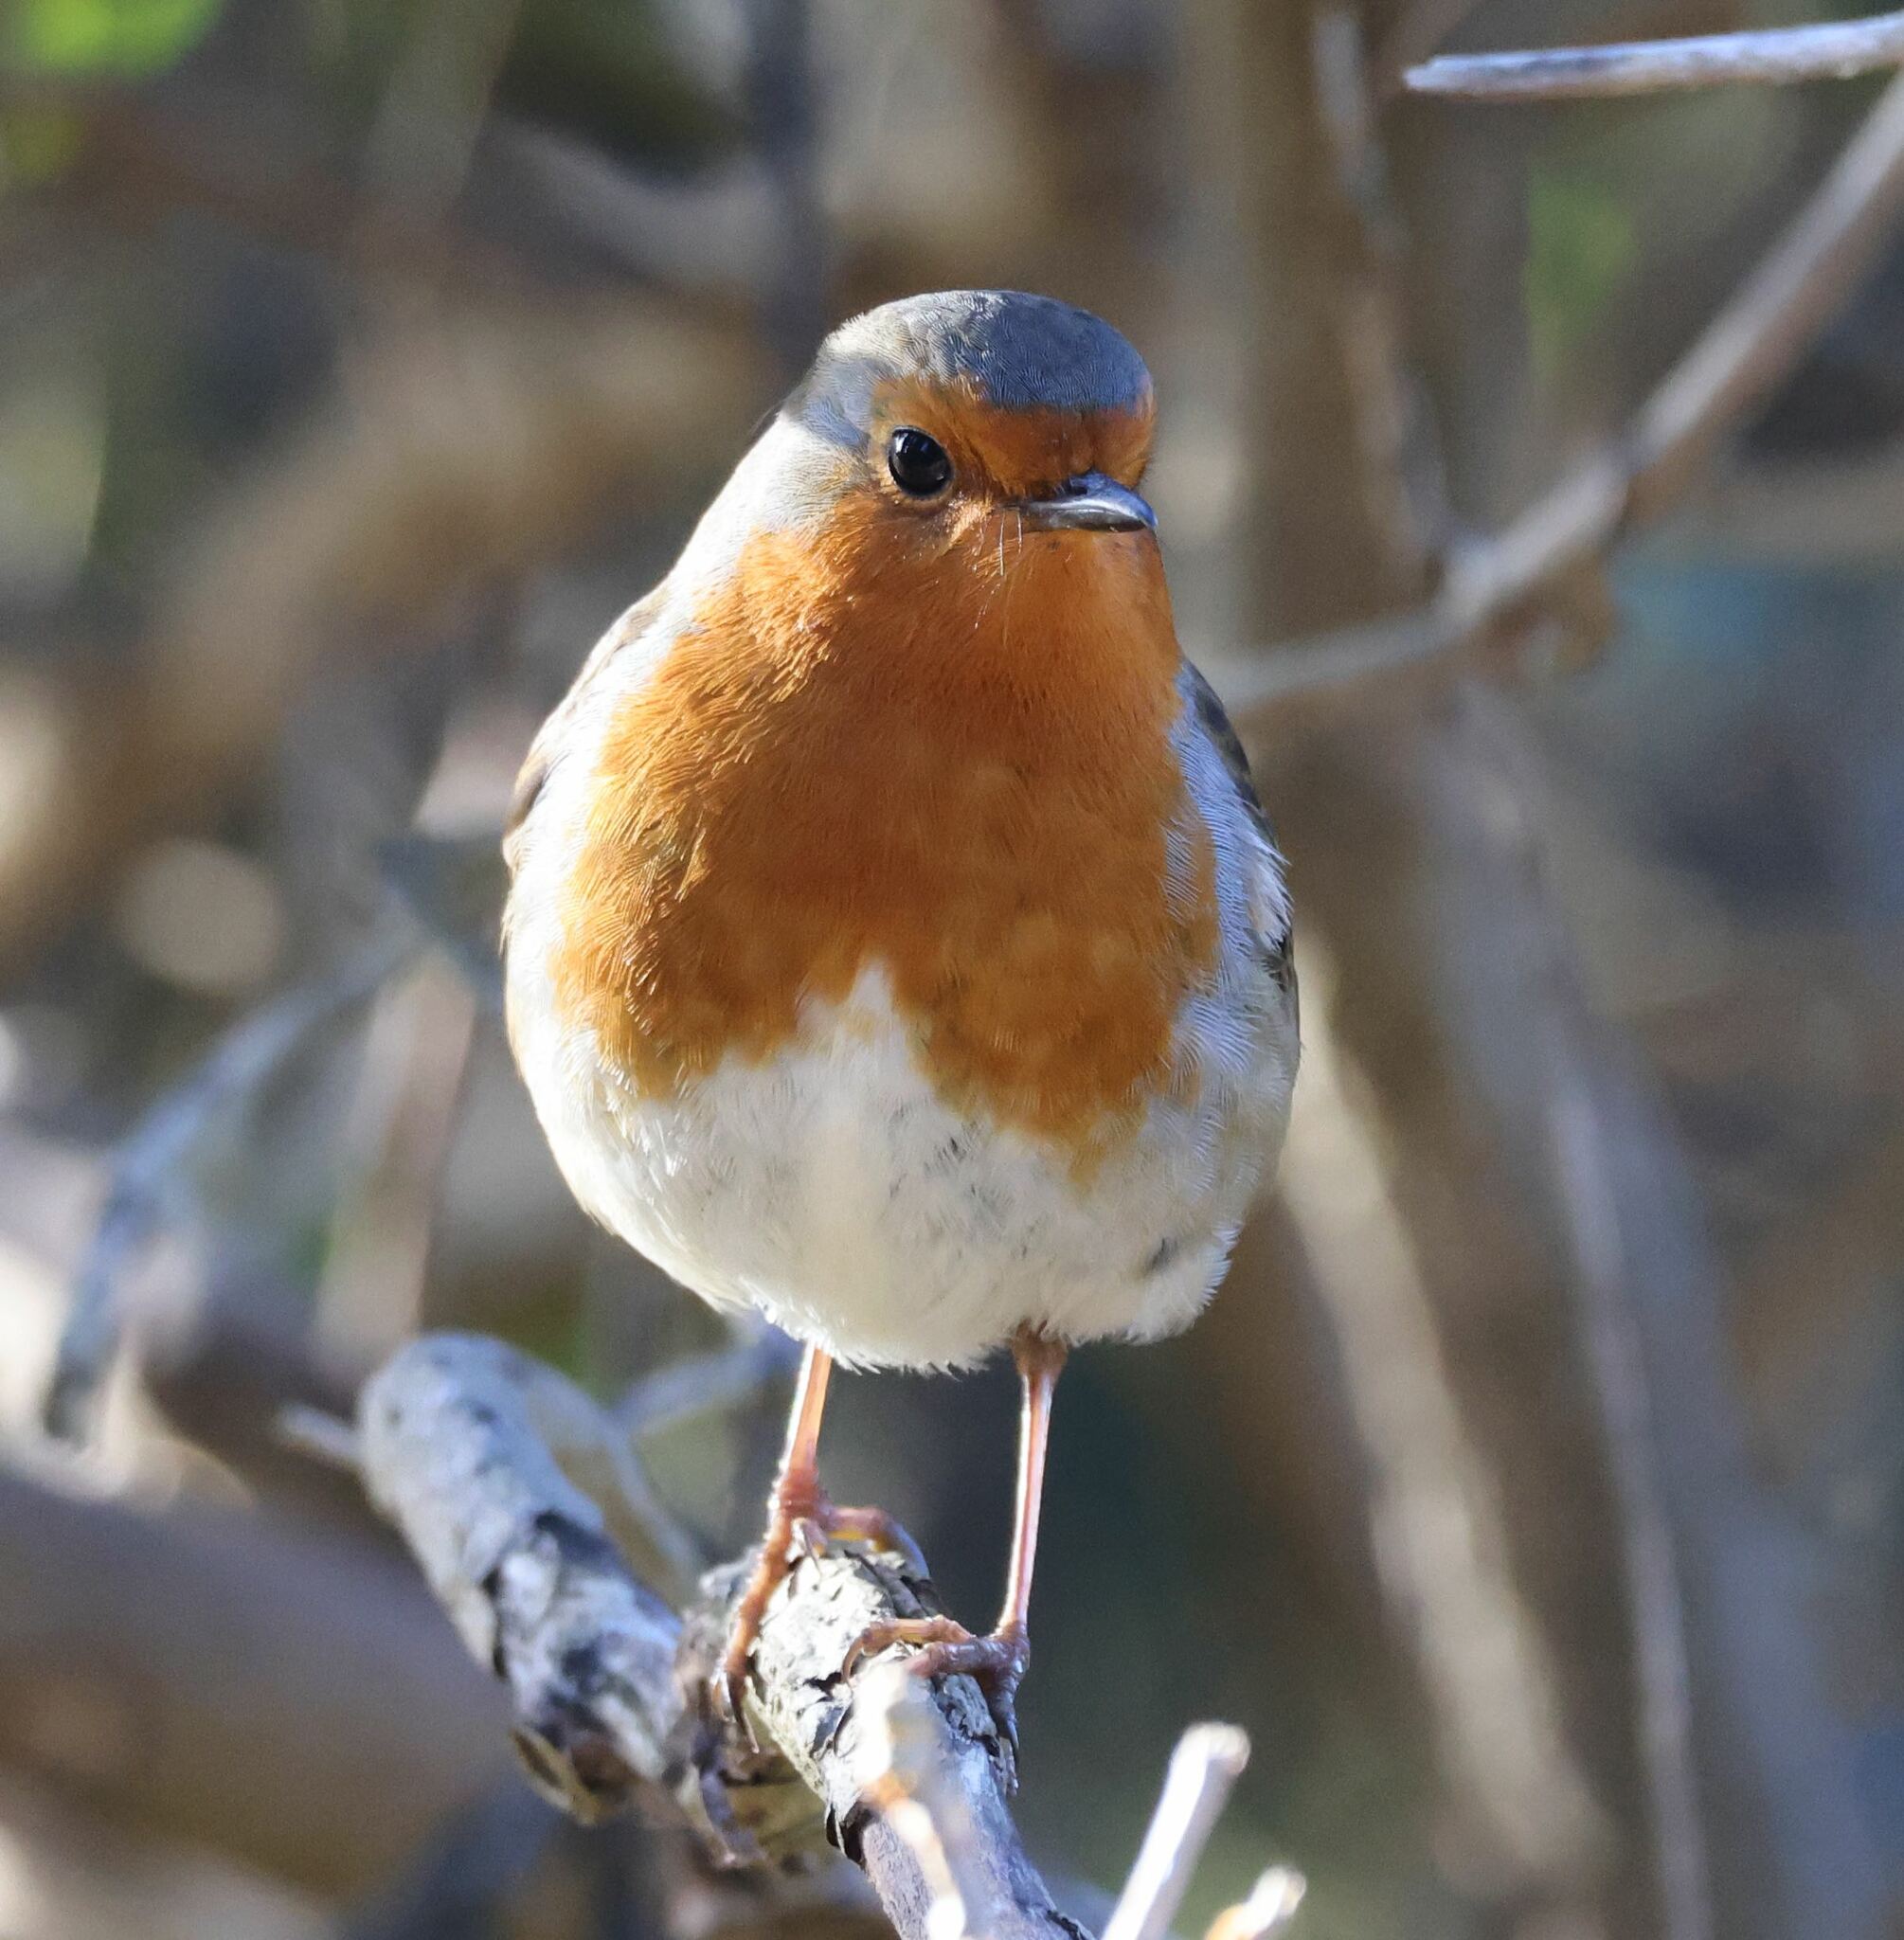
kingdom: Animalia
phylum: Chordata
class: Aves
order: Passeriformes
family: Muscicapidae
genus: Erithacus
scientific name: Erithacus rubecula
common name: European robin
